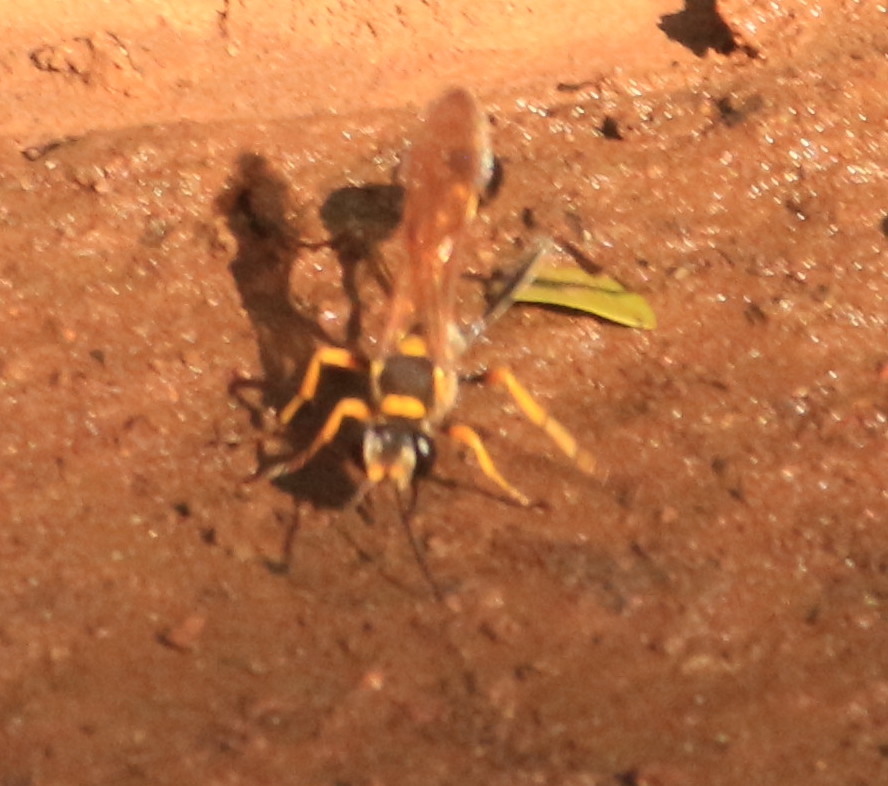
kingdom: Animalia
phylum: Arthropoda
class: Insecta
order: Hymenoptera
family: Sphecidae
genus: Sceliphron
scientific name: Sceliphron asiaticum
